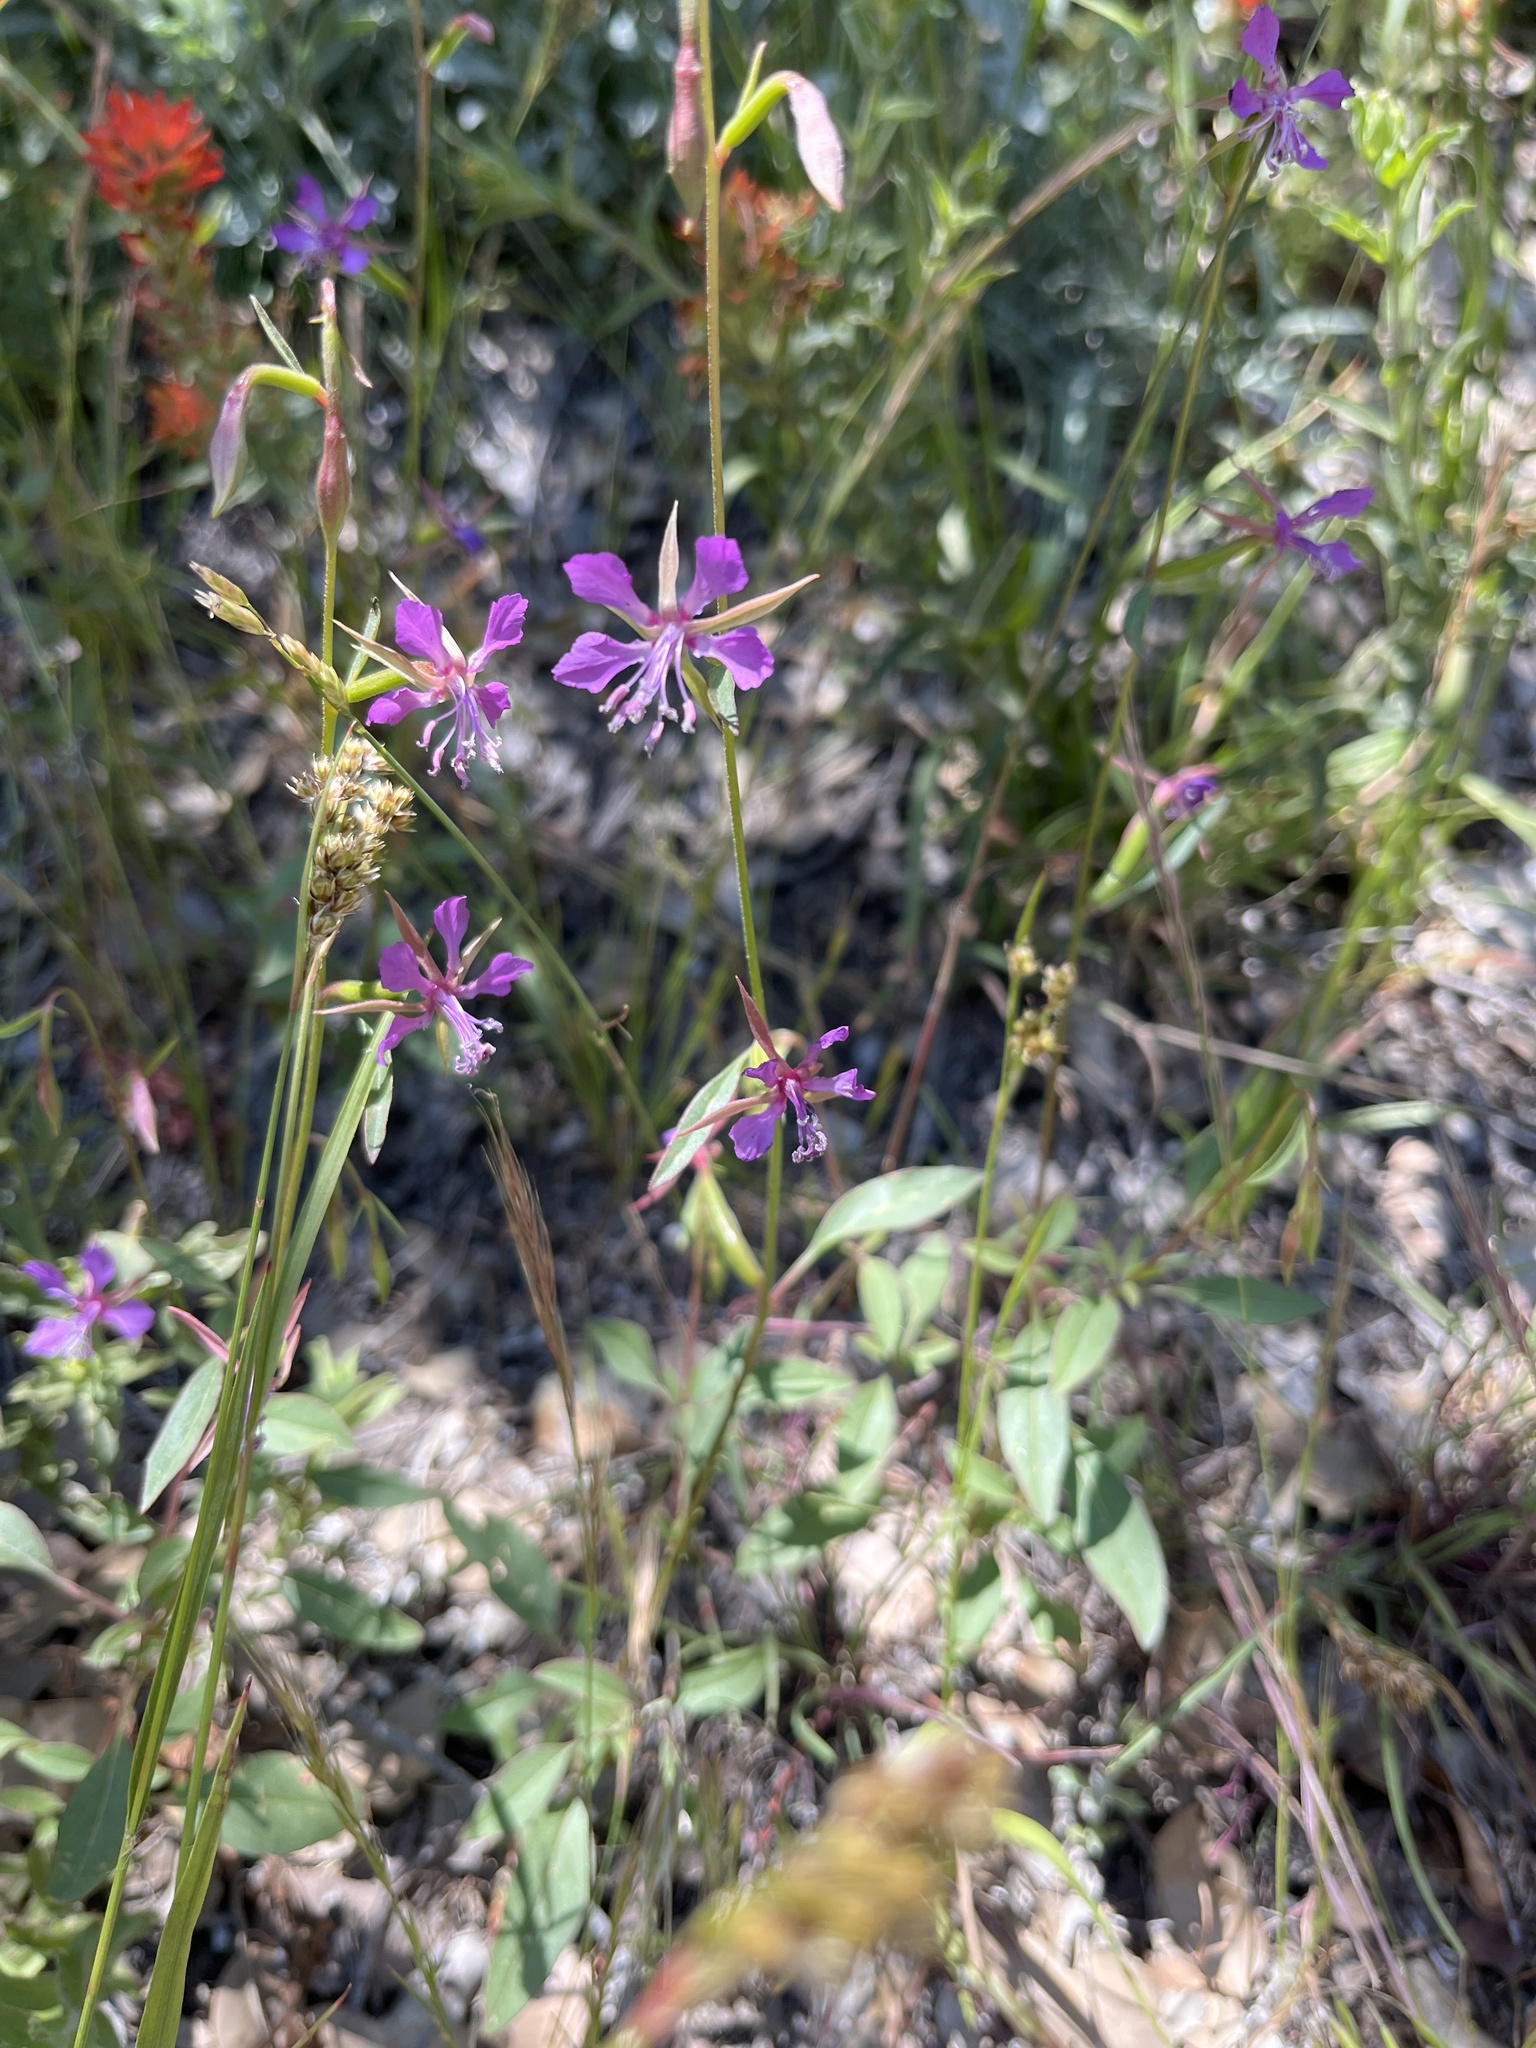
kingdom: Plantae
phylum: Tracheophyta
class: Magnoliopsida
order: Myrtales
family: Onagraceae
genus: Clarkia
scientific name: Clarkia rhomboidea
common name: Broadleaf clarkia
